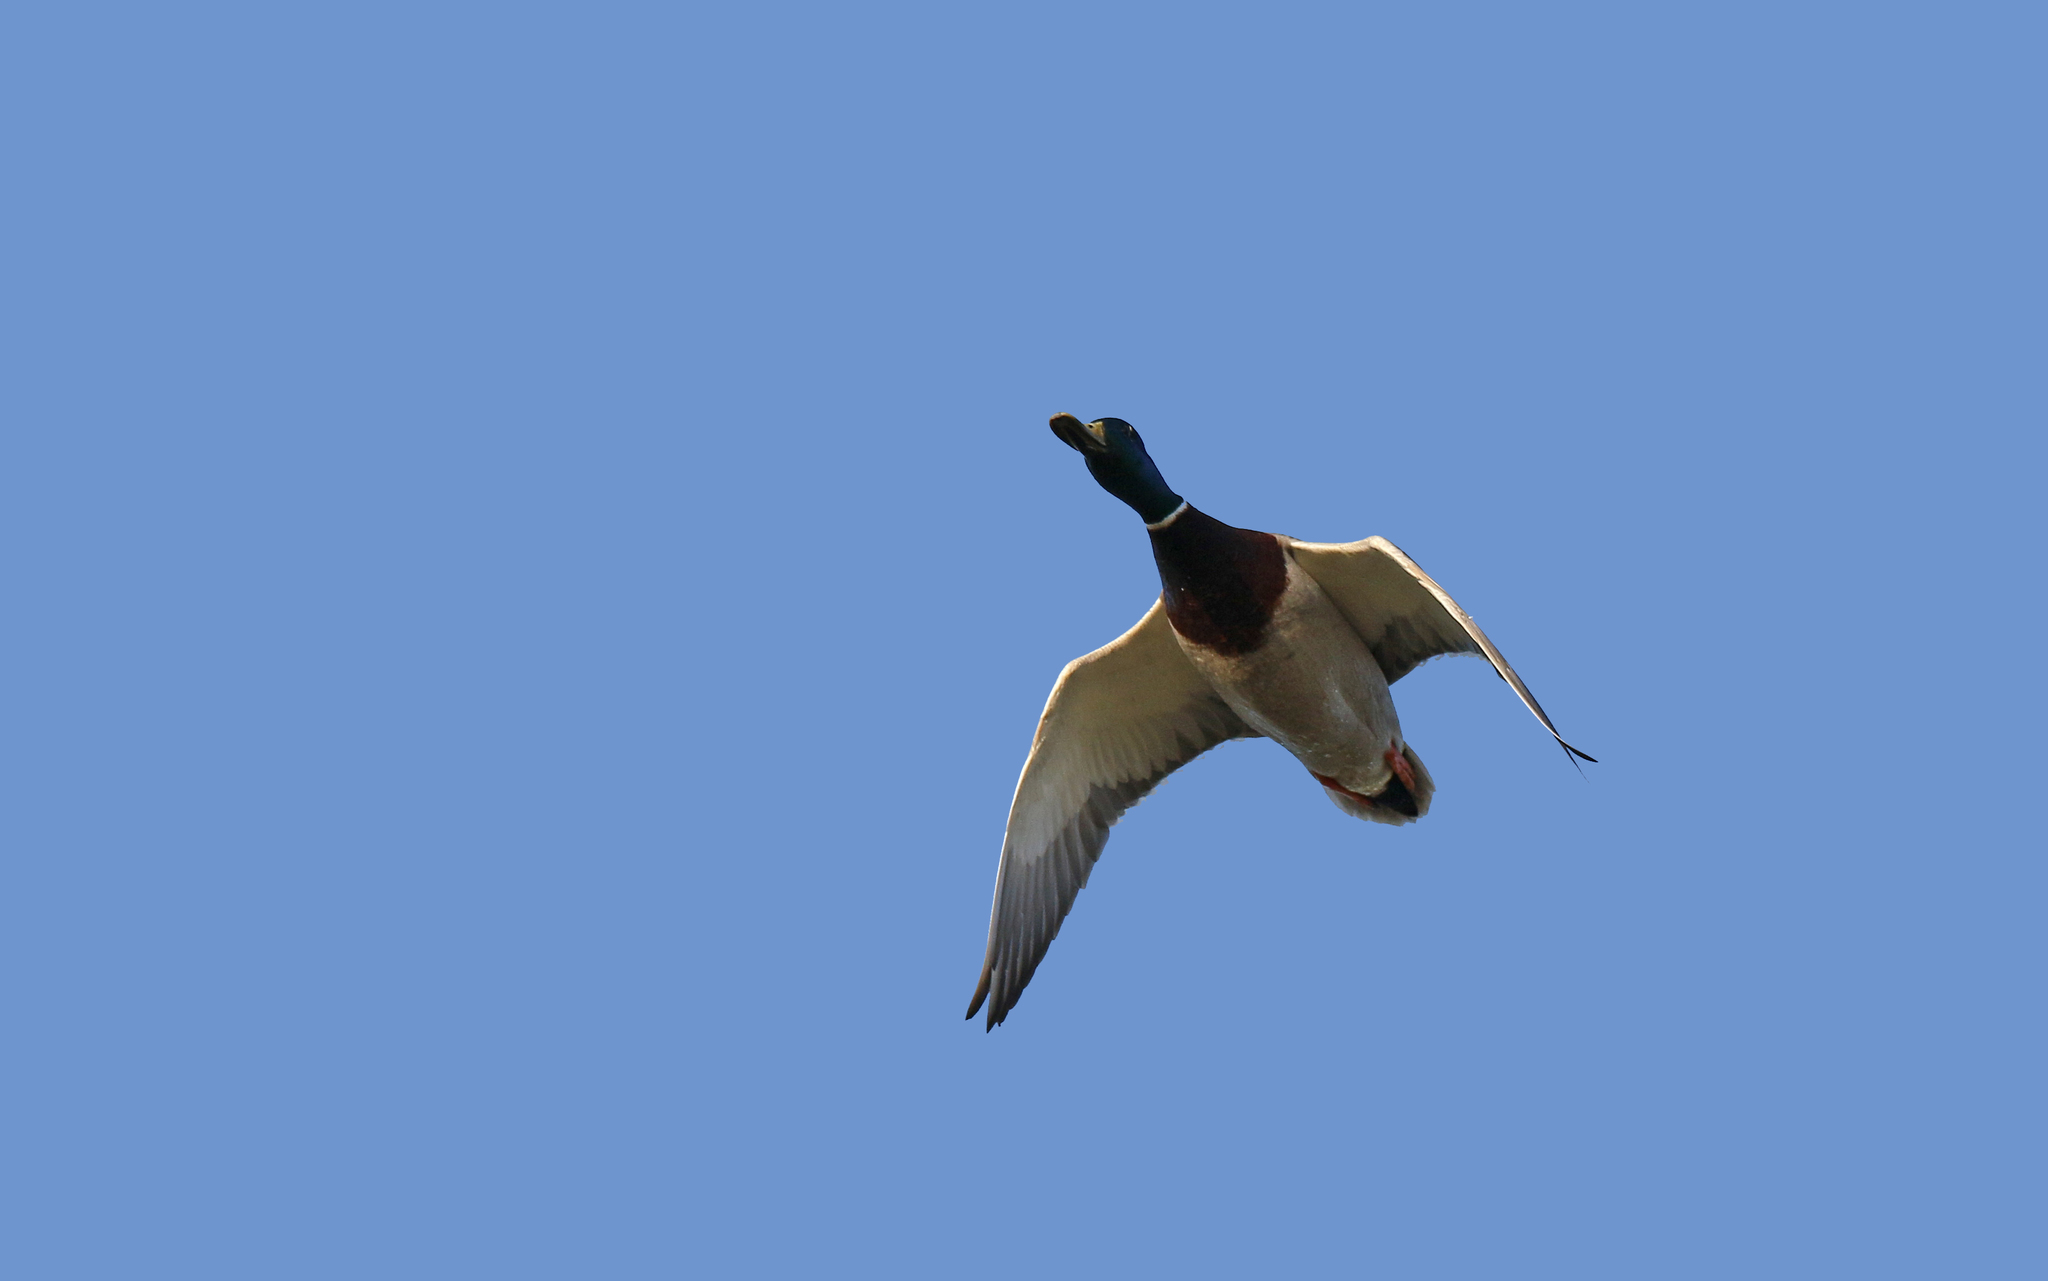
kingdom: Animalia
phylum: Chordata
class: Aves
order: Anseriformes
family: Anatidae
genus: Anas
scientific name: Anas platyrhynchos
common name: Mallard
